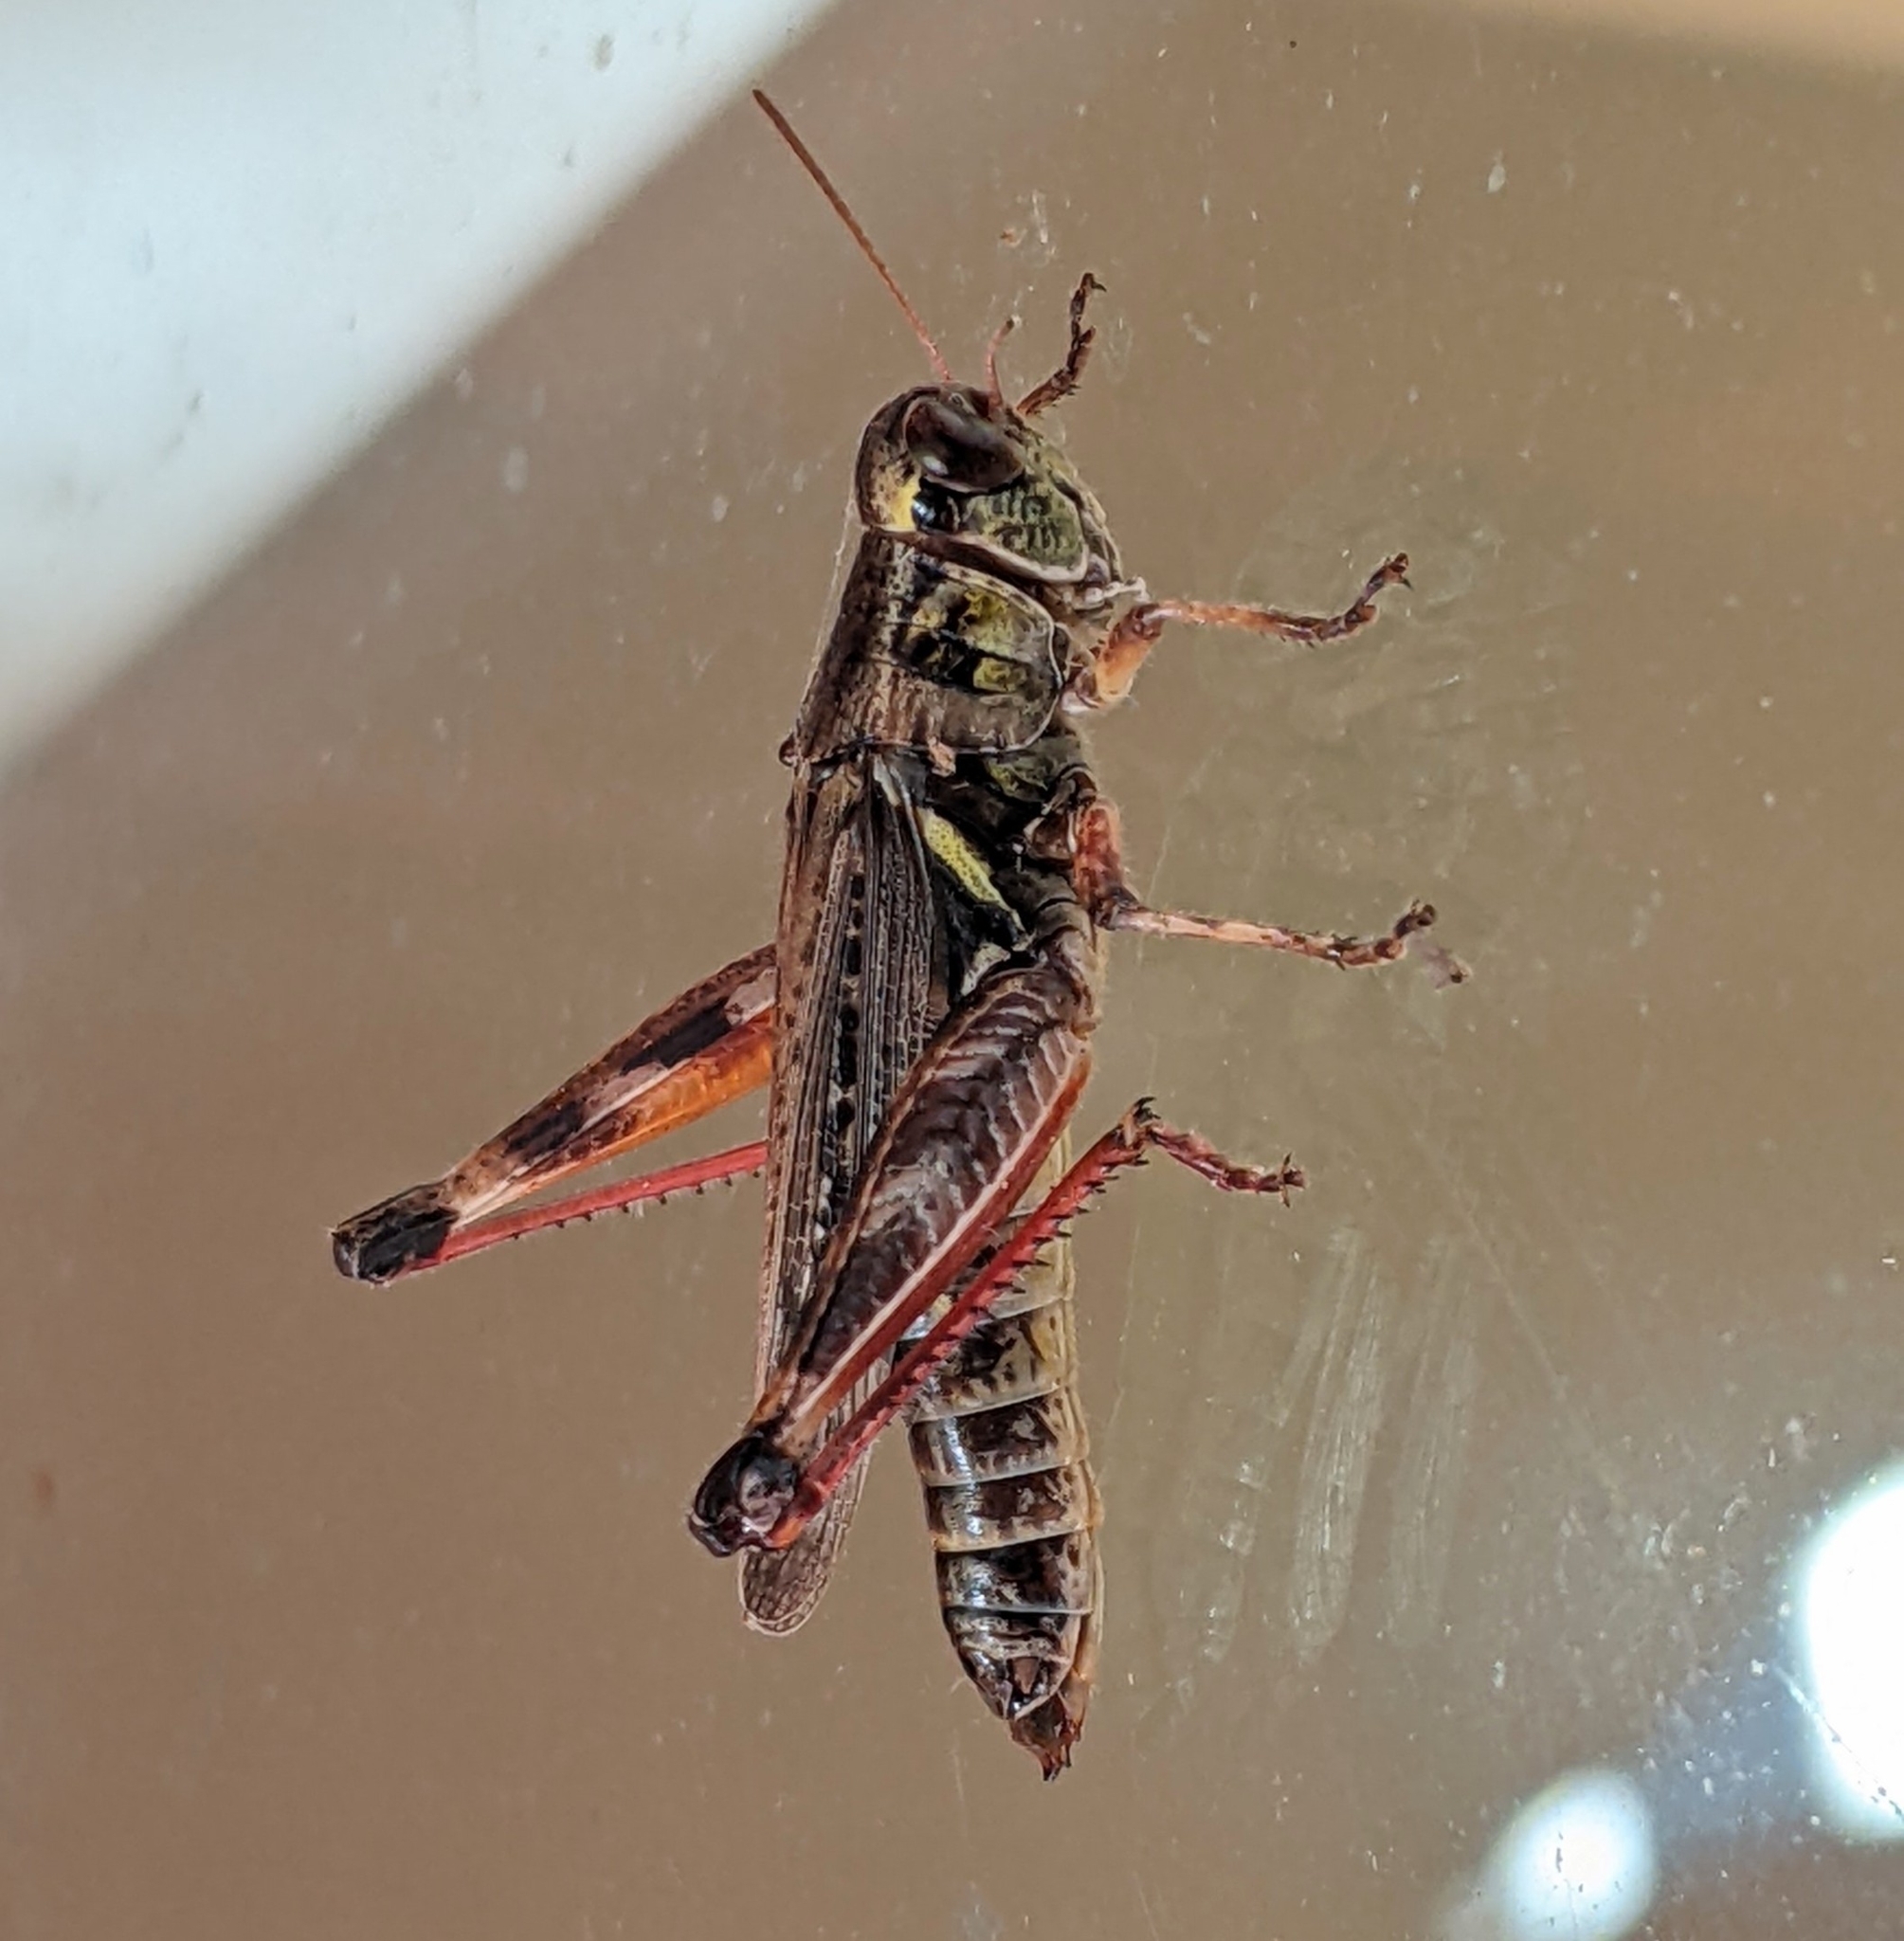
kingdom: Animalia
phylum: Arthropoda
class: Insecta
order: Orthoptera
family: Acrididae
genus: Melanoplus
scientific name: Melanoplus sanguinipes
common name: Migratory grasshopper
